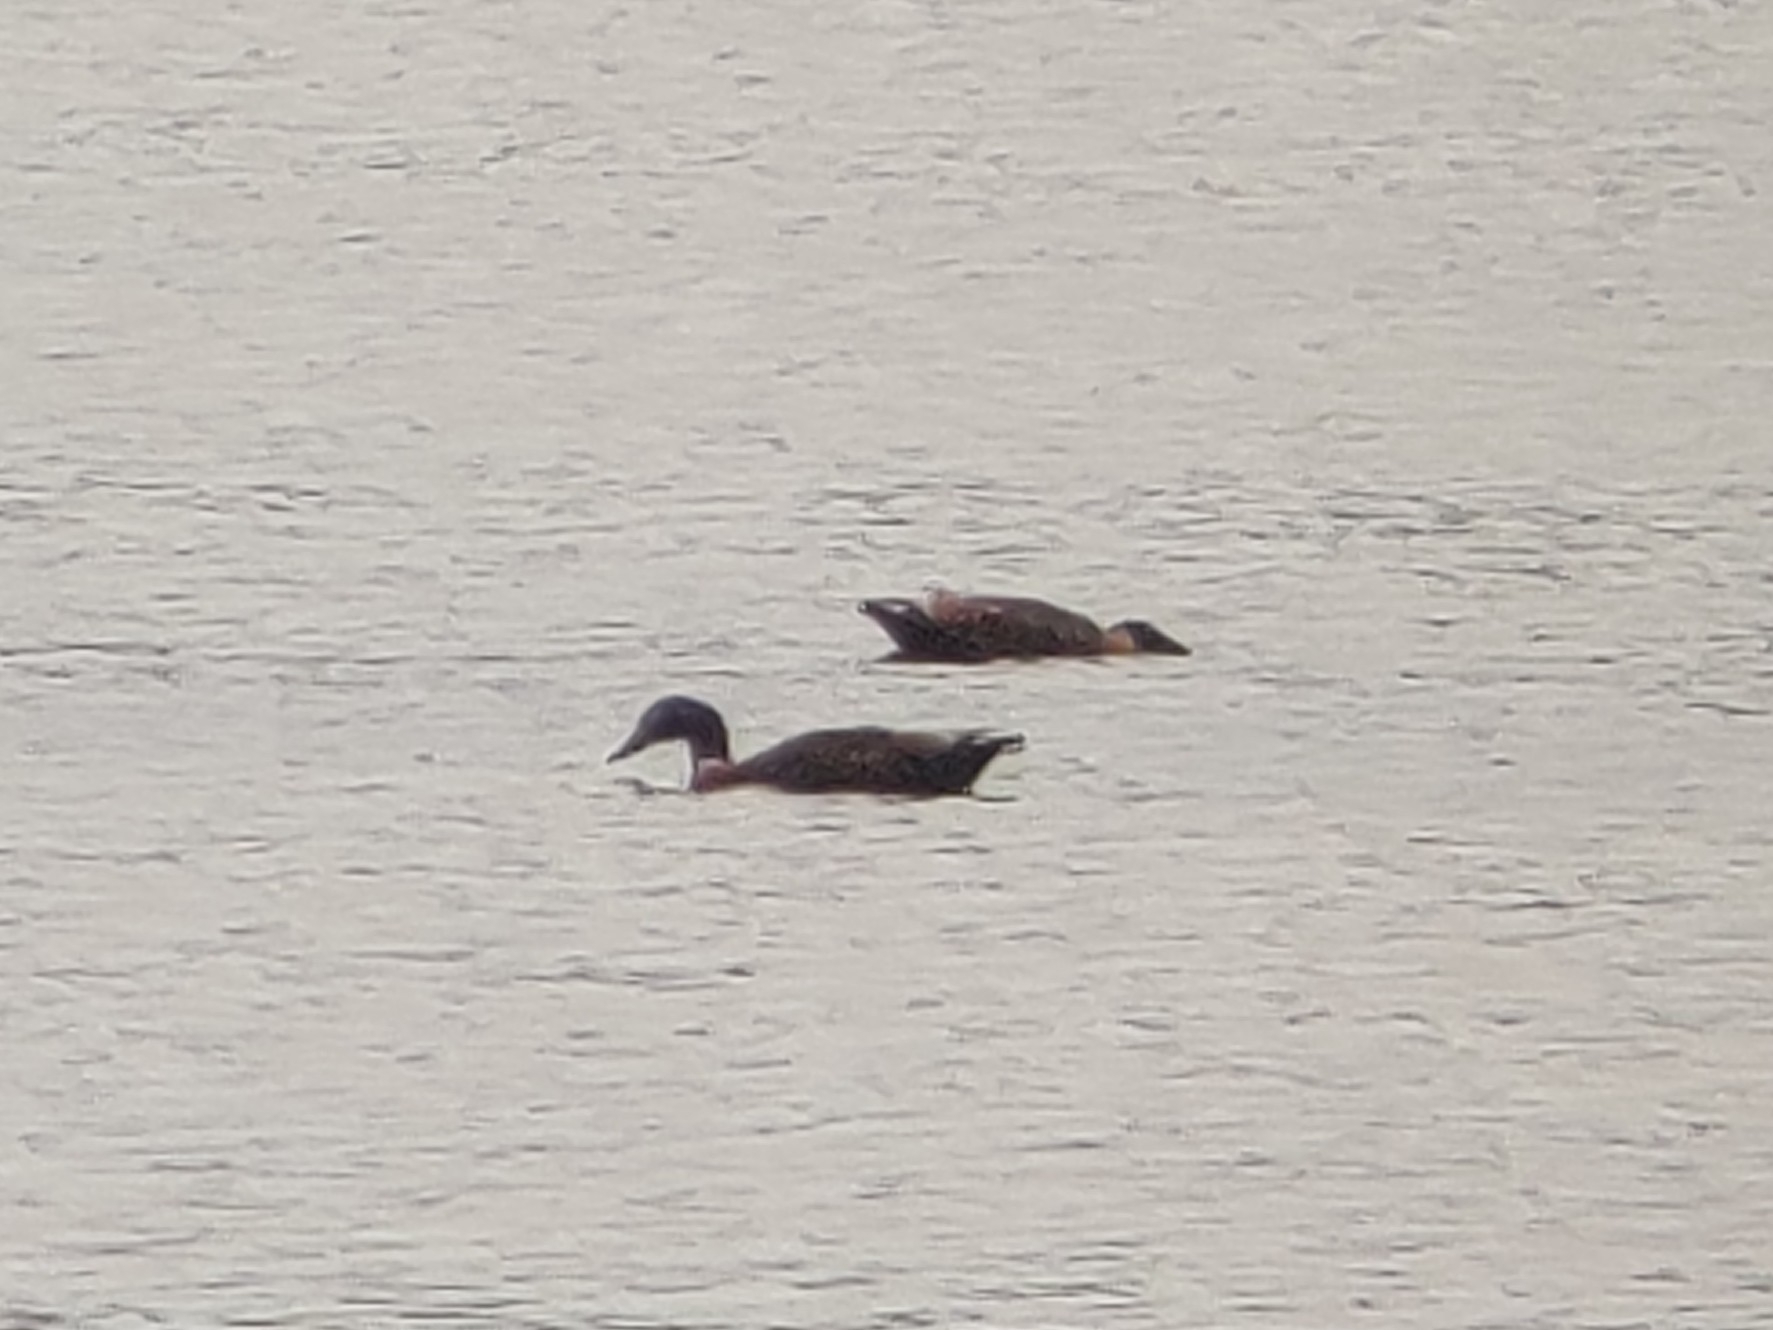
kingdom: Animalia
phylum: Chordata
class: Aves
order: Anseriformes
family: Anatidae
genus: Tadorna
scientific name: Tadorna tadornoides
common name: Australian shelduck
